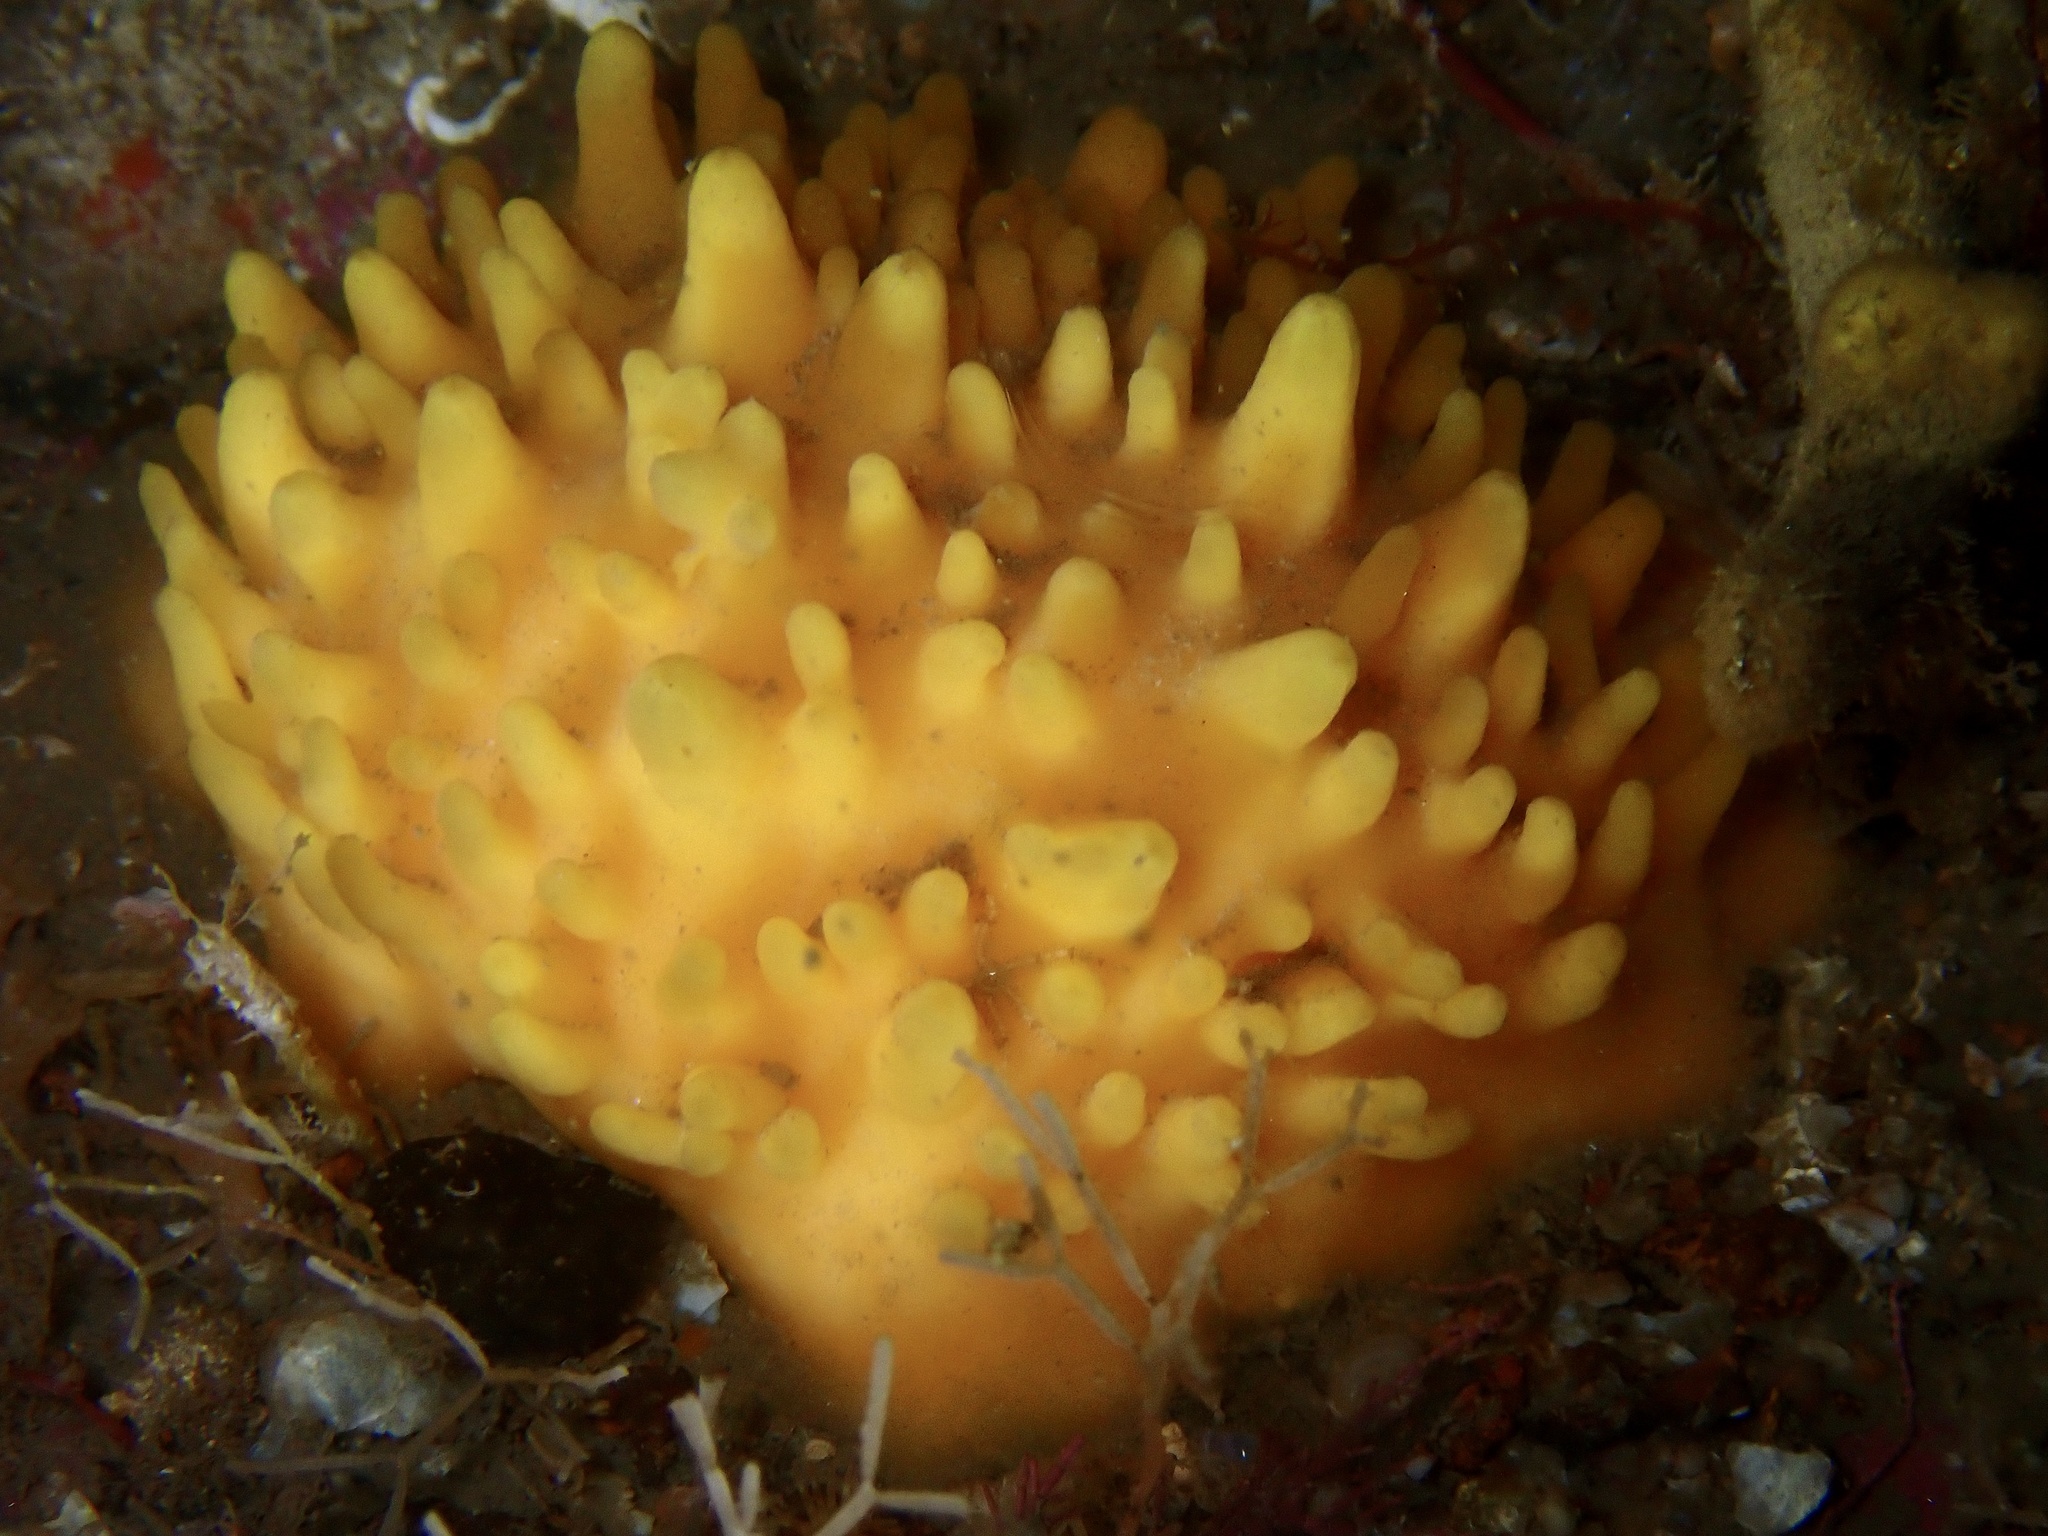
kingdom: Animalia
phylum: Porifera
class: Demospongiae
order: Polymastiida
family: Polymastiidae
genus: Polymastia
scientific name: Polymastia boletiformis
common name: Massive horny sponge
